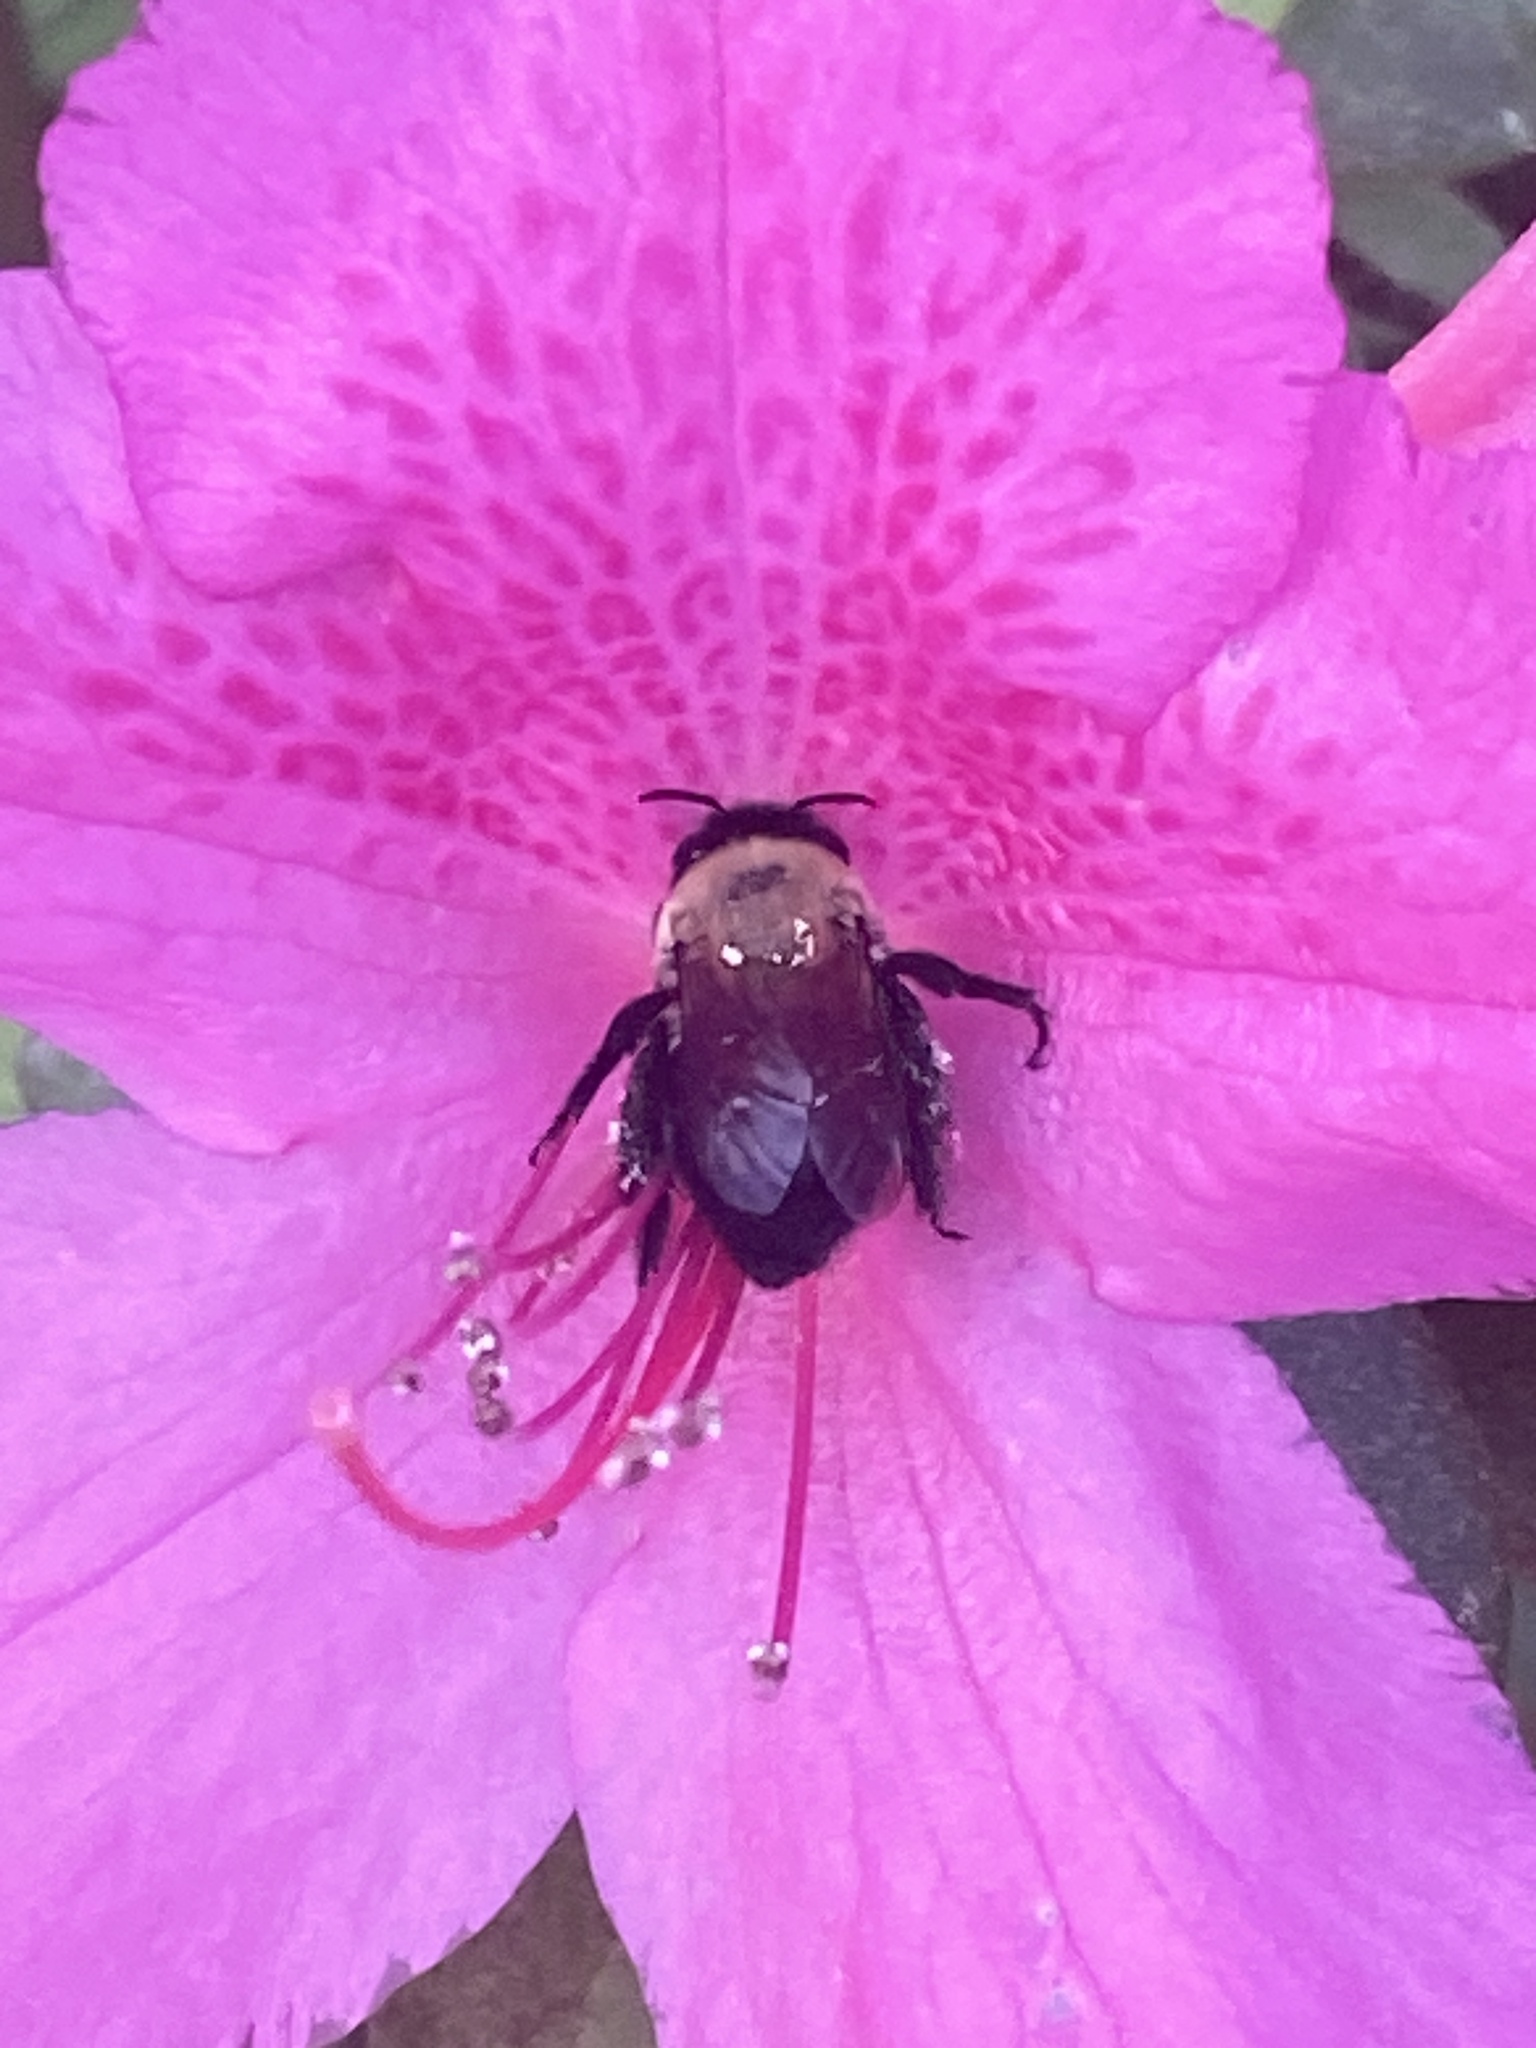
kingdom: Animalia
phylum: Arthropoda
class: Insecta
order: Hymenoptera
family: Apidae
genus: Habropoda
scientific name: Habropoda laboriosa
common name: Southeastern blueberry bee
